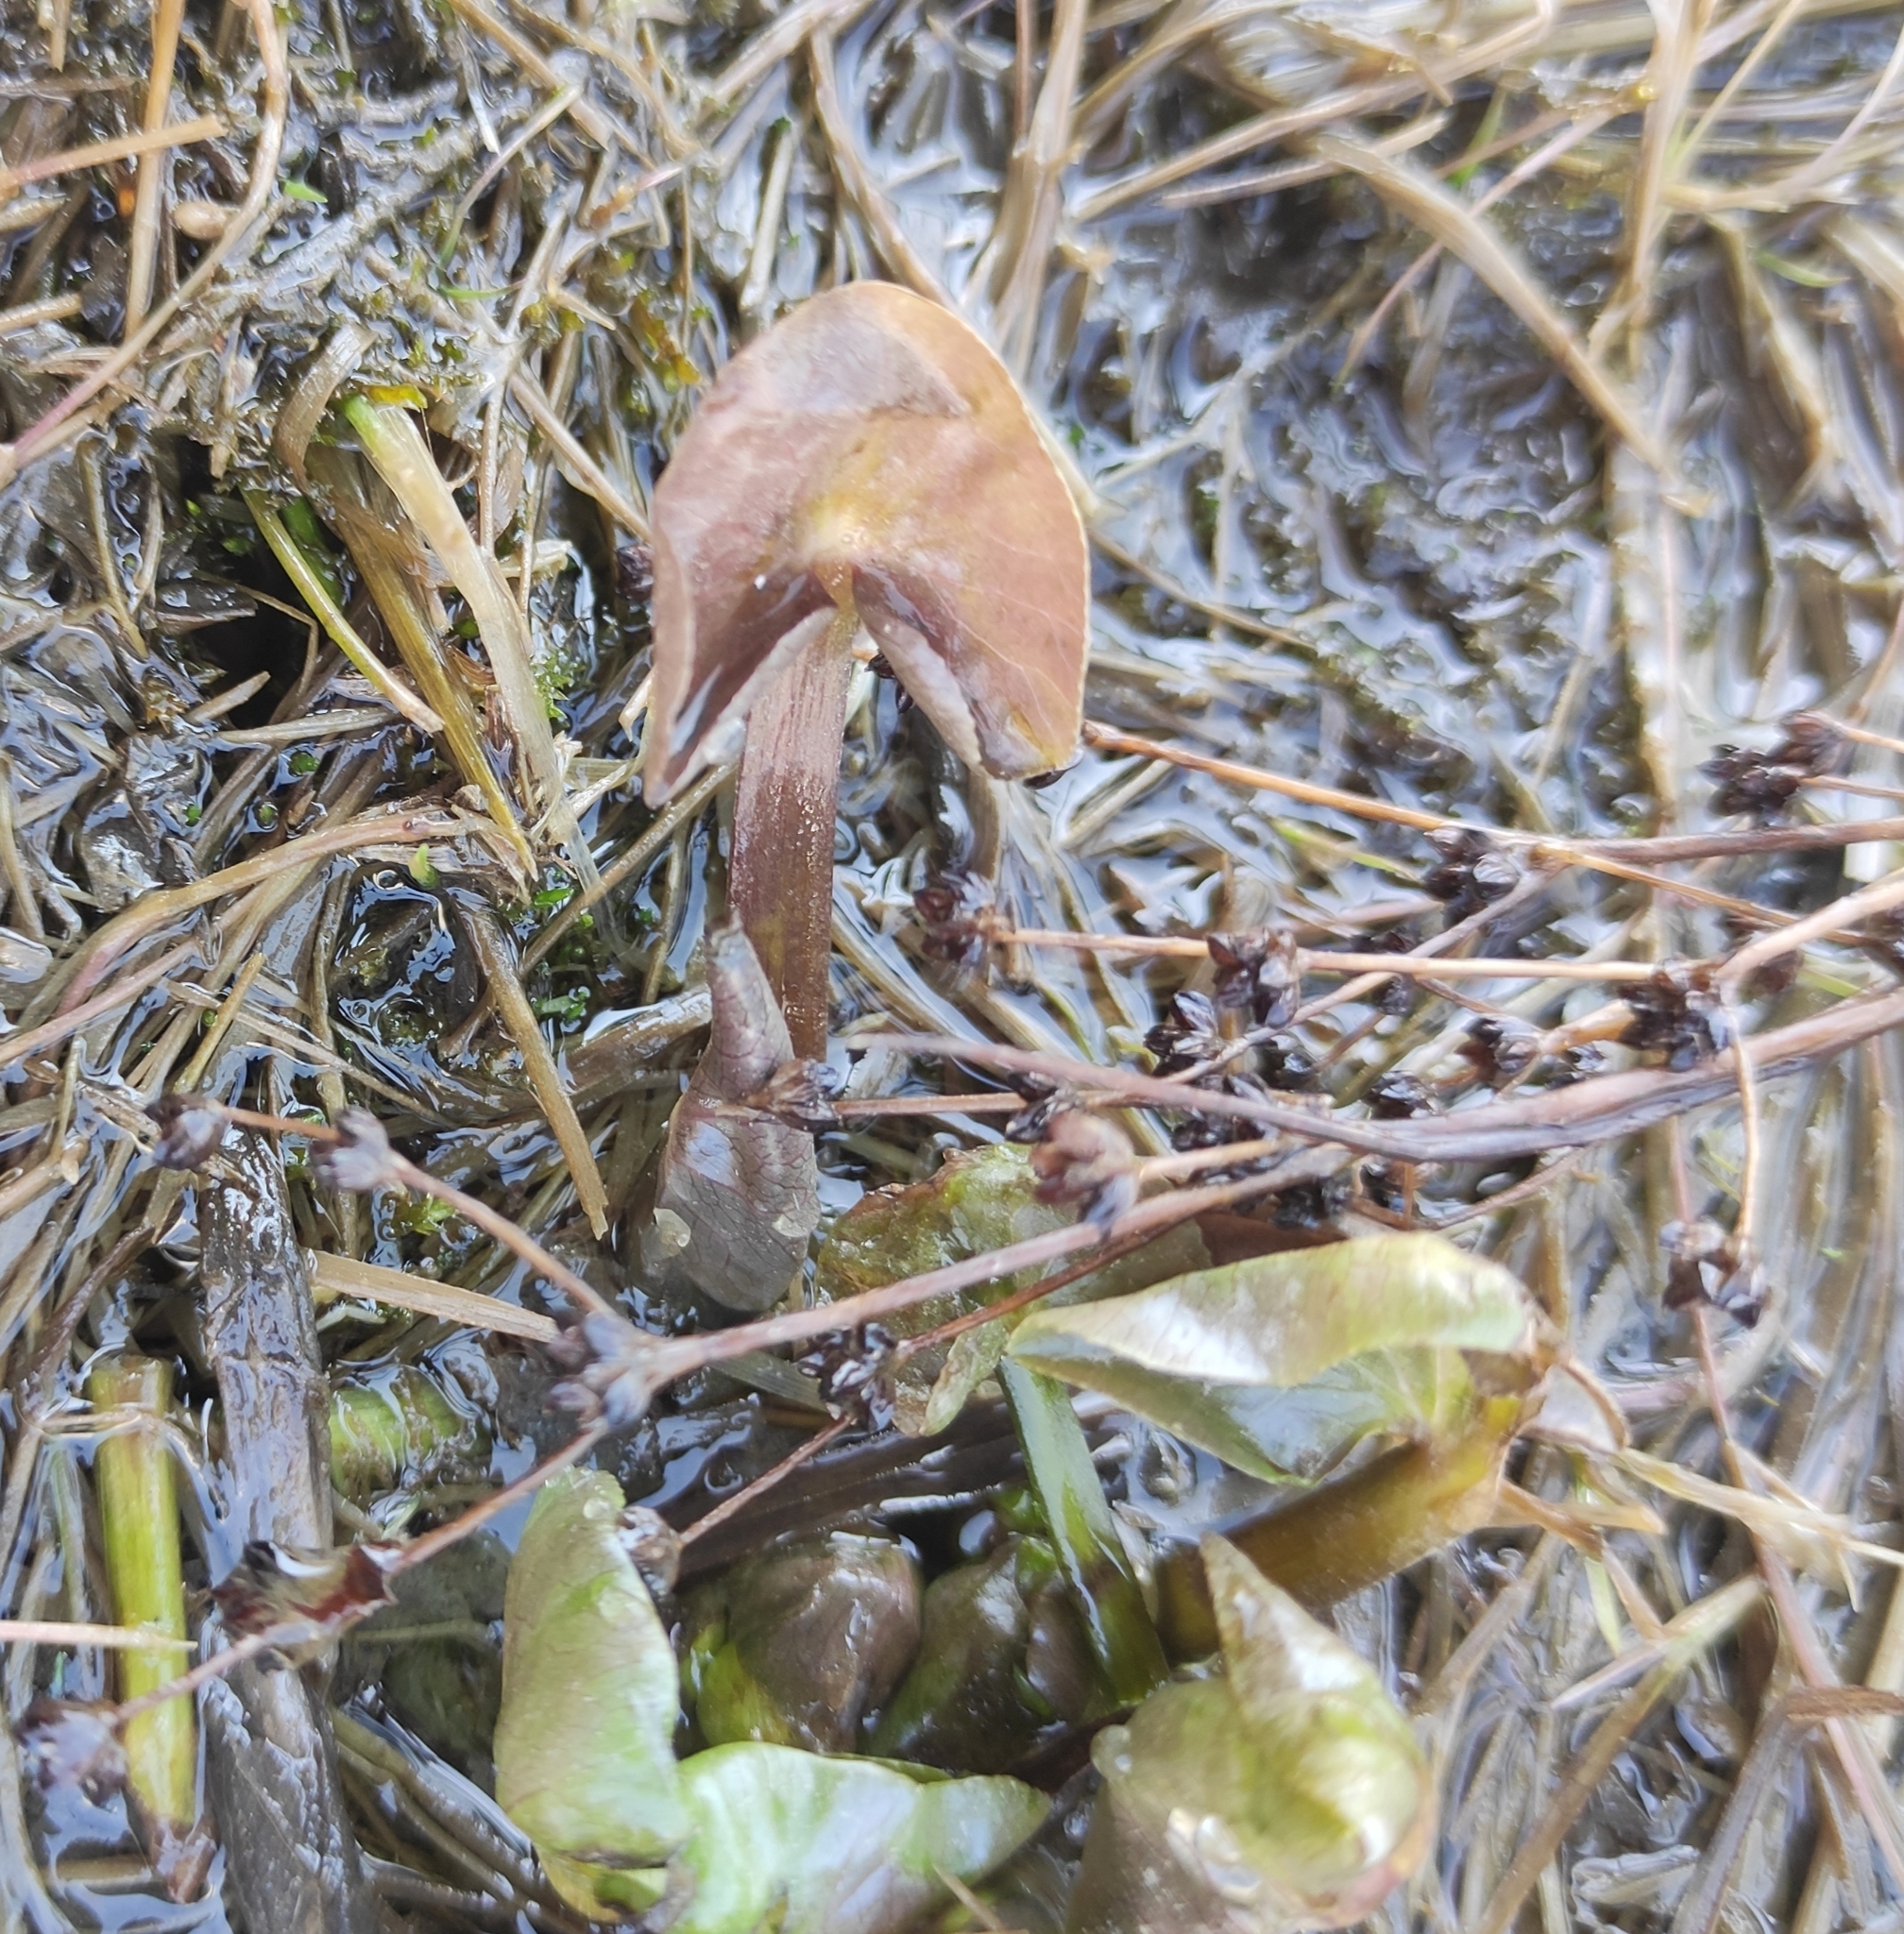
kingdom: Plantae
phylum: Tracheophyta
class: Magnoliopsida
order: Ranunculales
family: Ranunculaceae
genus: Caltha
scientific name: Caltha palustris
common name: Marsh marigold
